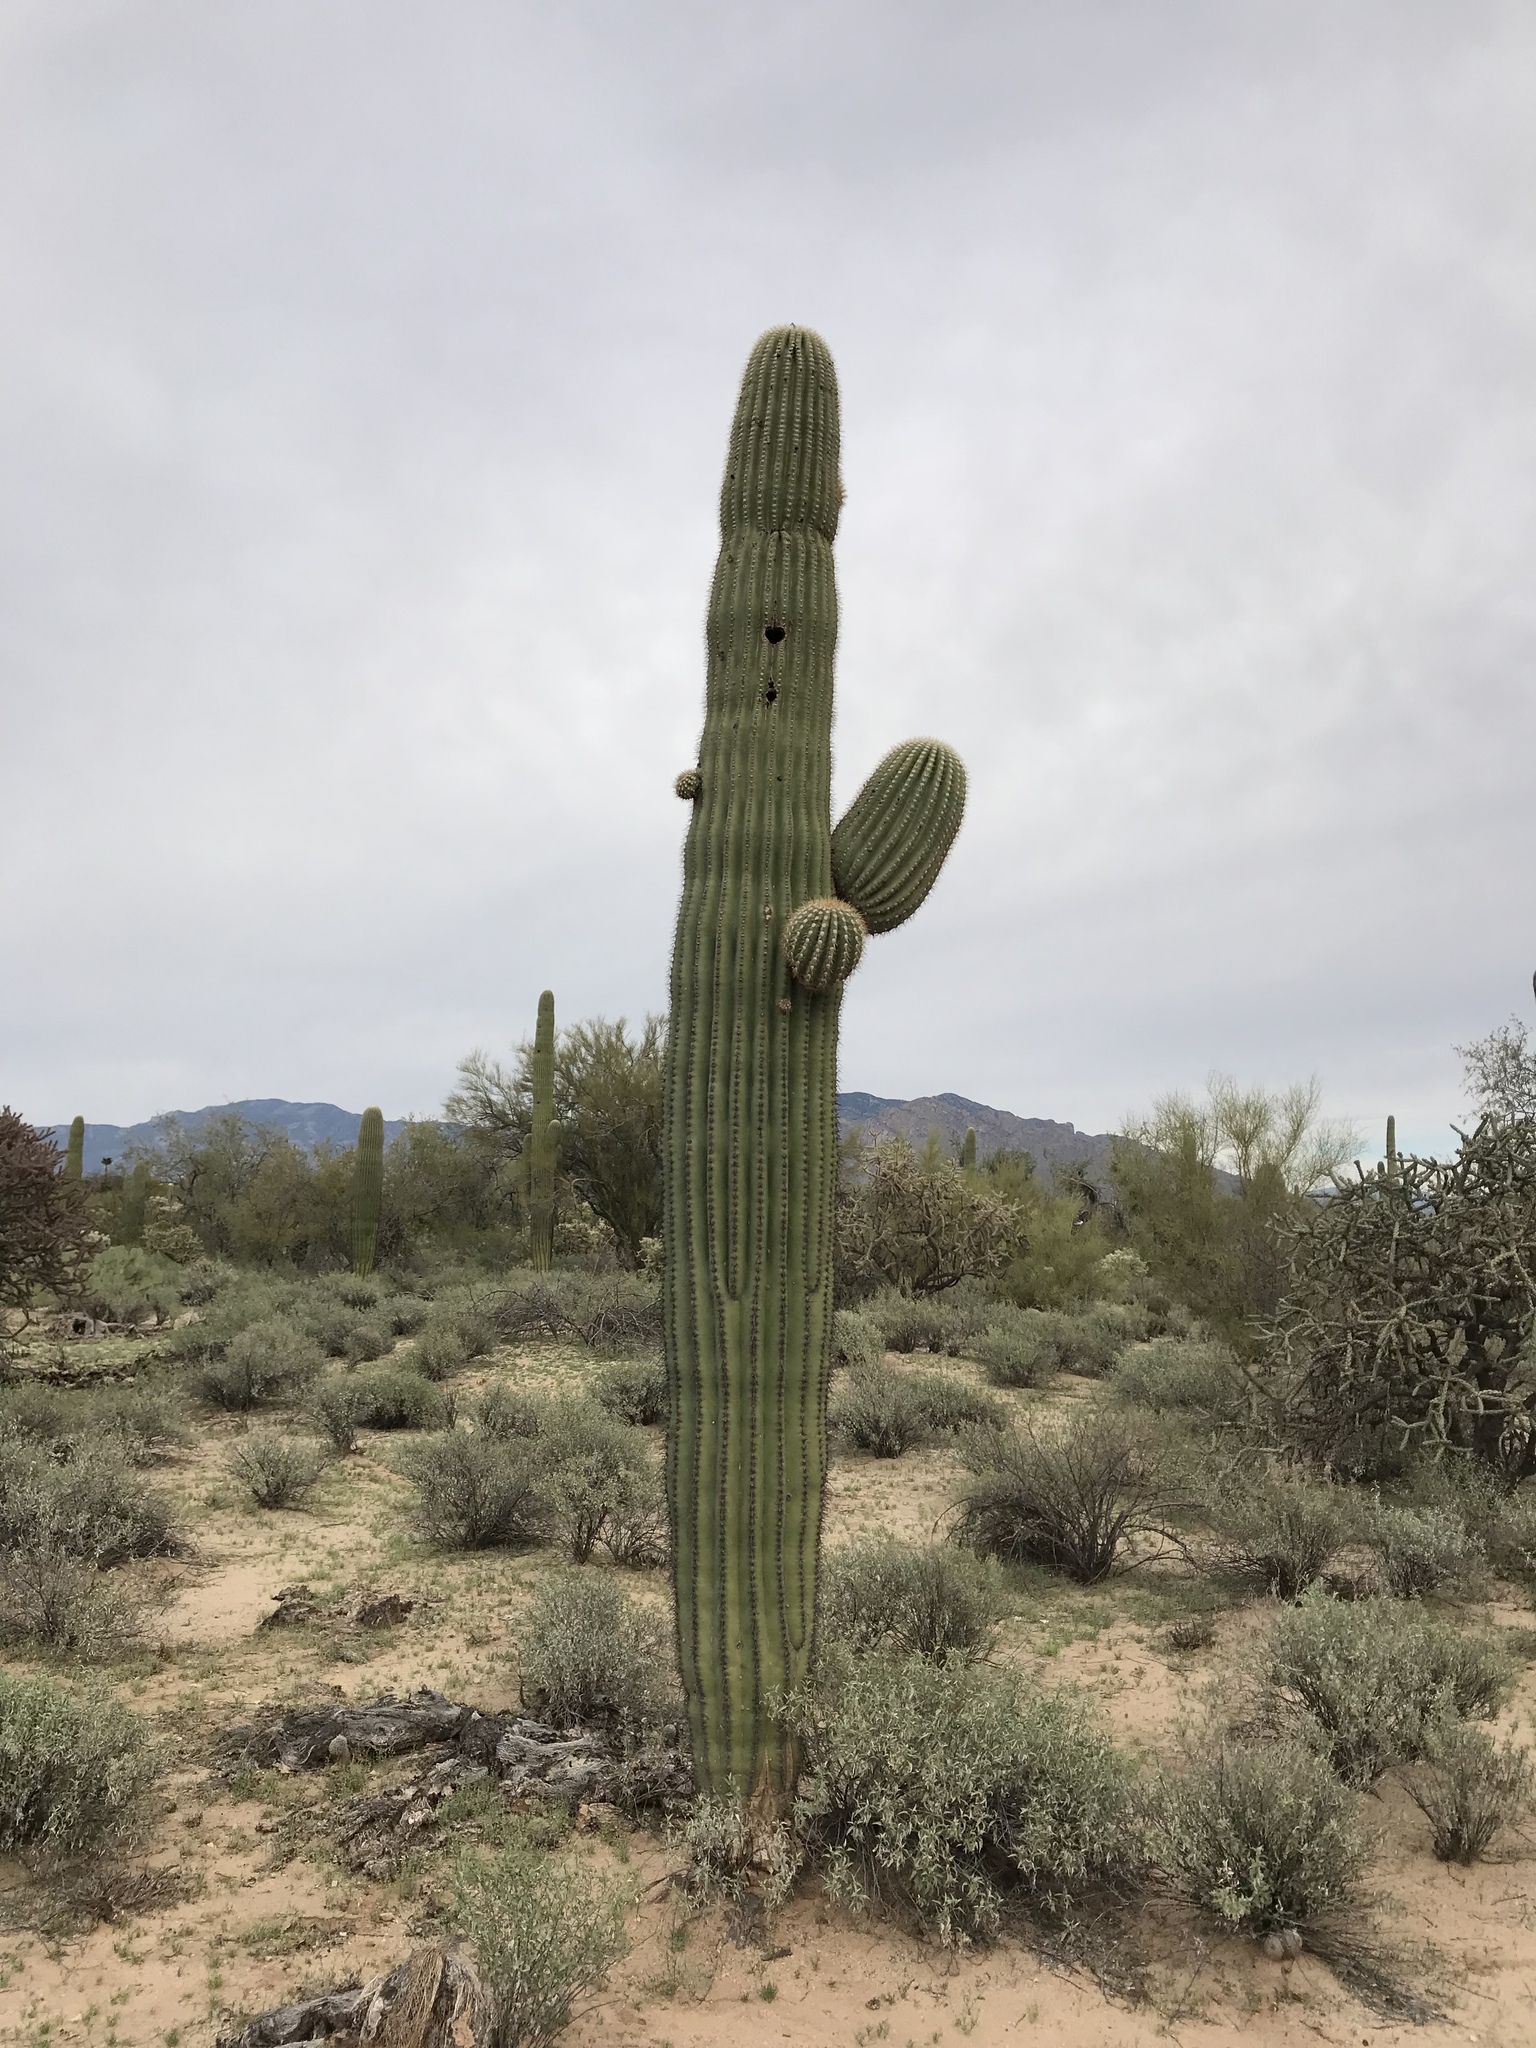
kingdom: Plantae
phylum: Tracheophyta
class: Magnoliopsida
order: Caryophyllales
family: Cactaceae
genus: Carnegiea
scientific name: Carnegiea gigantea
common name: Saguaro
